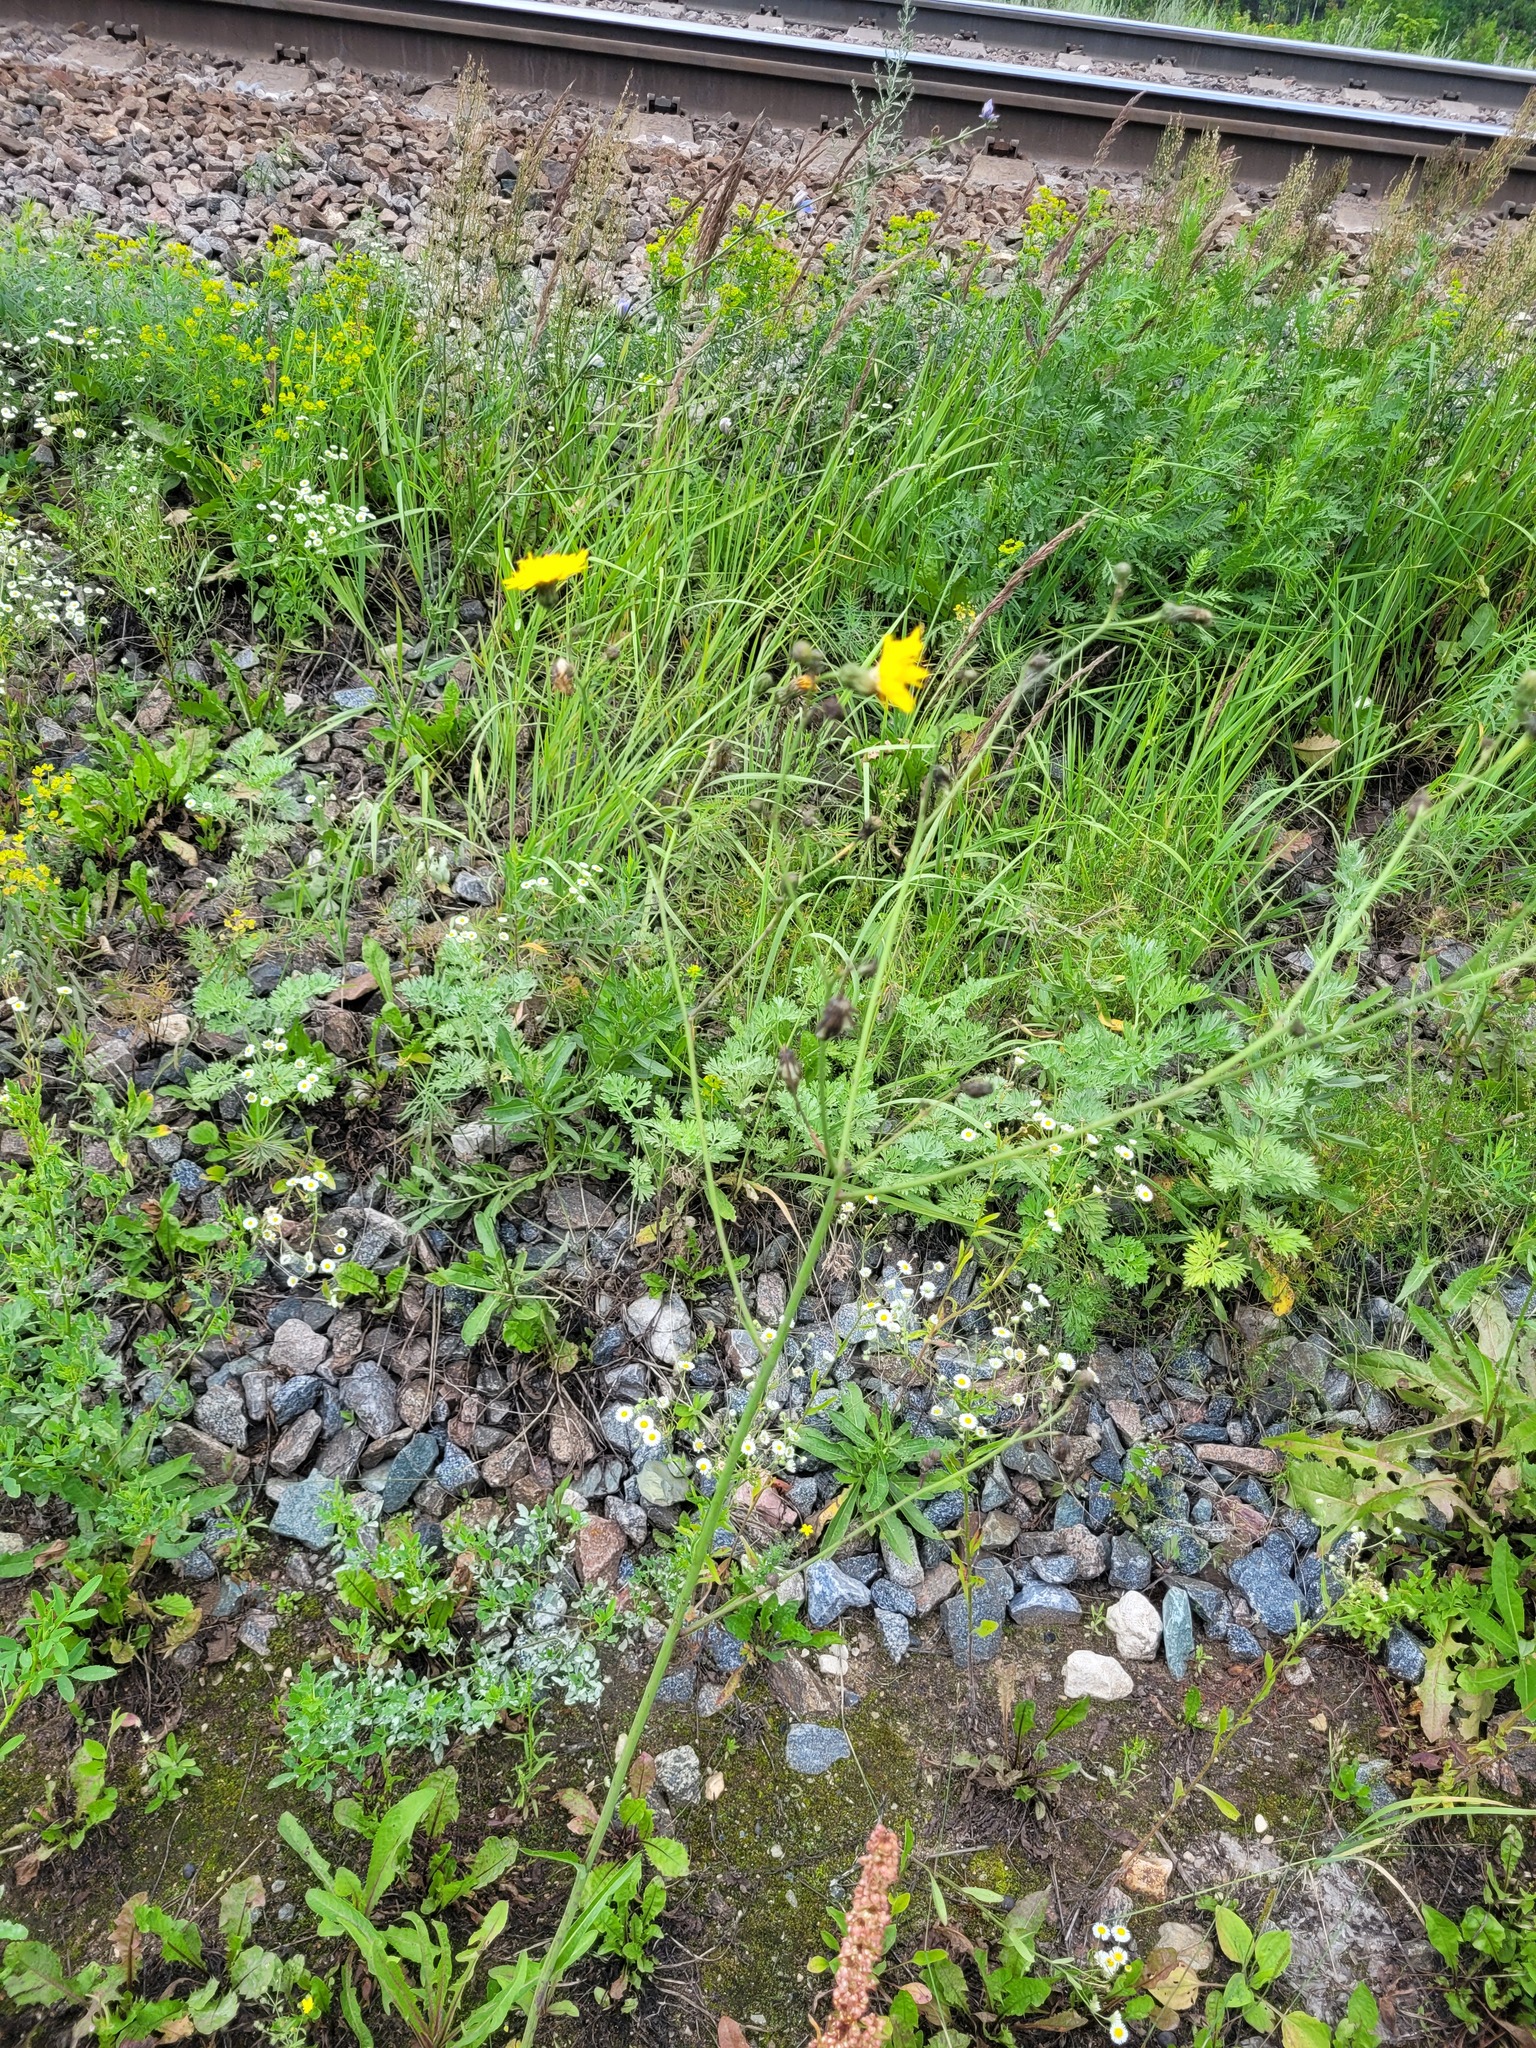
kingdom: Plantae
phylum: Tracheophyta
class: Magnoliopsida
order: Asterales
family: Asteraceae
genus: Sonchus
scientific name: Sonchus arvensis
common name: Perennial sow-thistle
